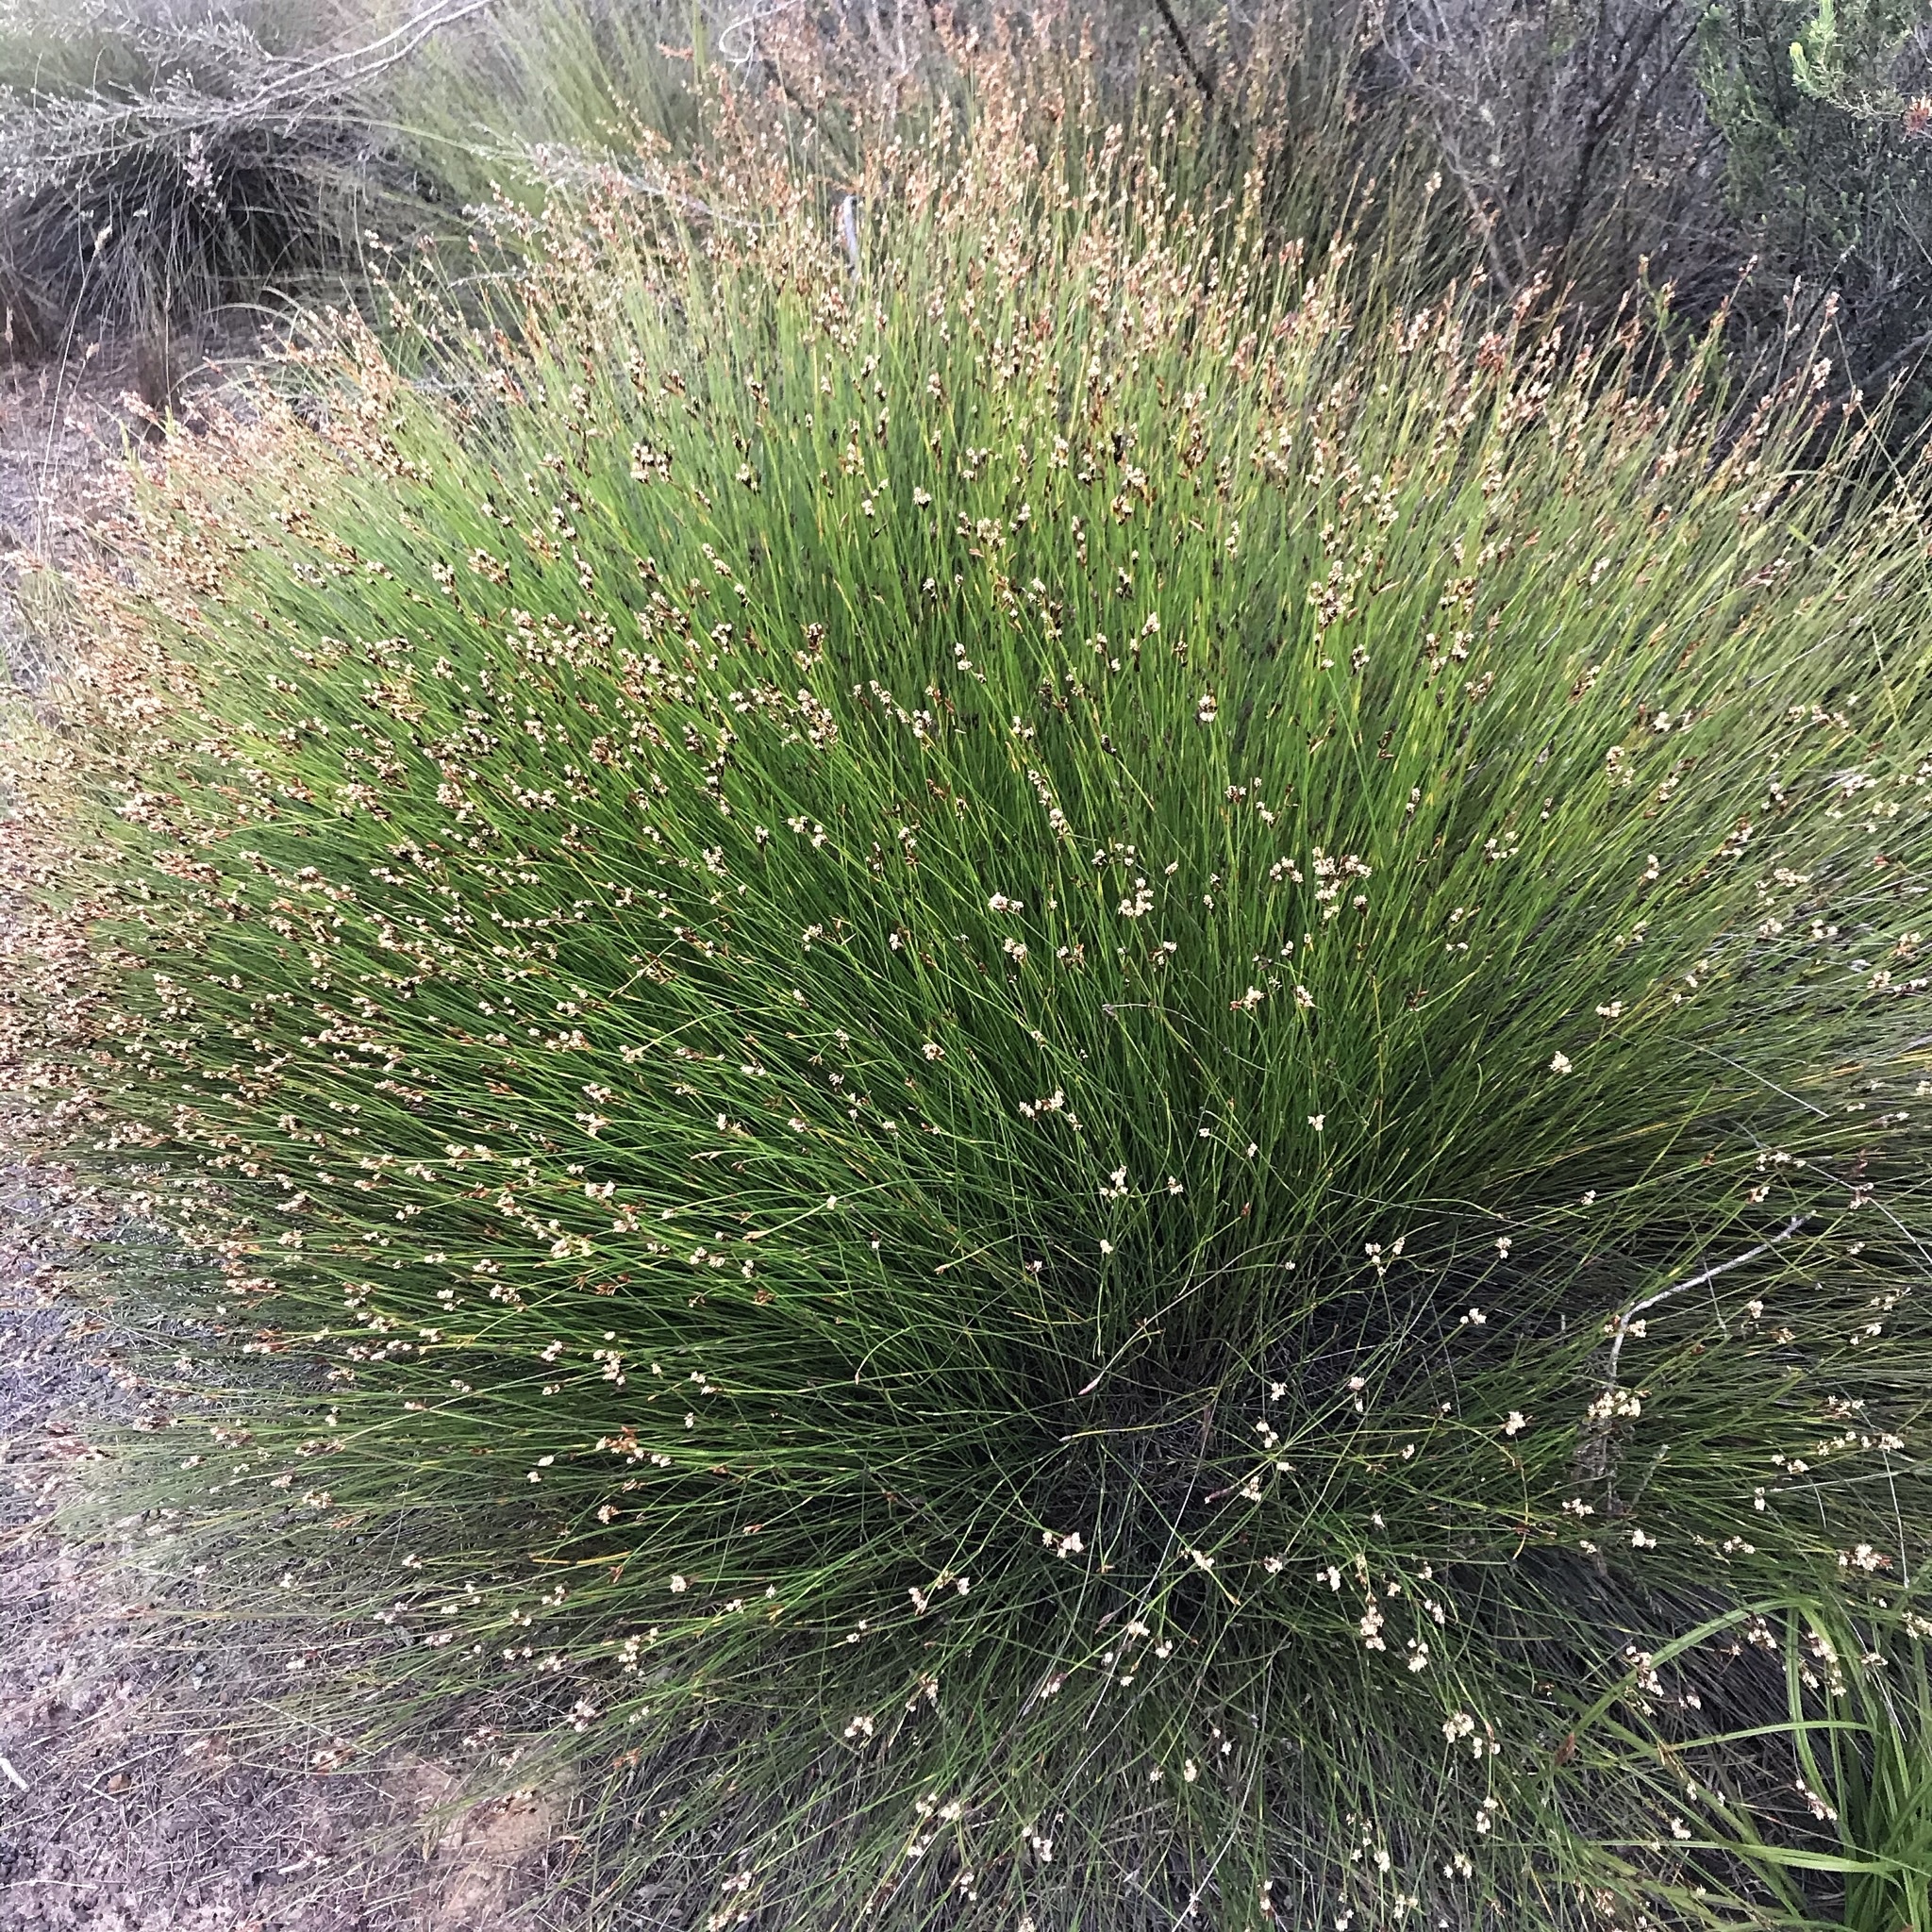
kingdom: Plantae
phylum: Tracheophyta
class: Liliopsida
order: Poales
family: Restionaceae
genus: Hypodiscus
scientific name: Hypodiscus striatus
